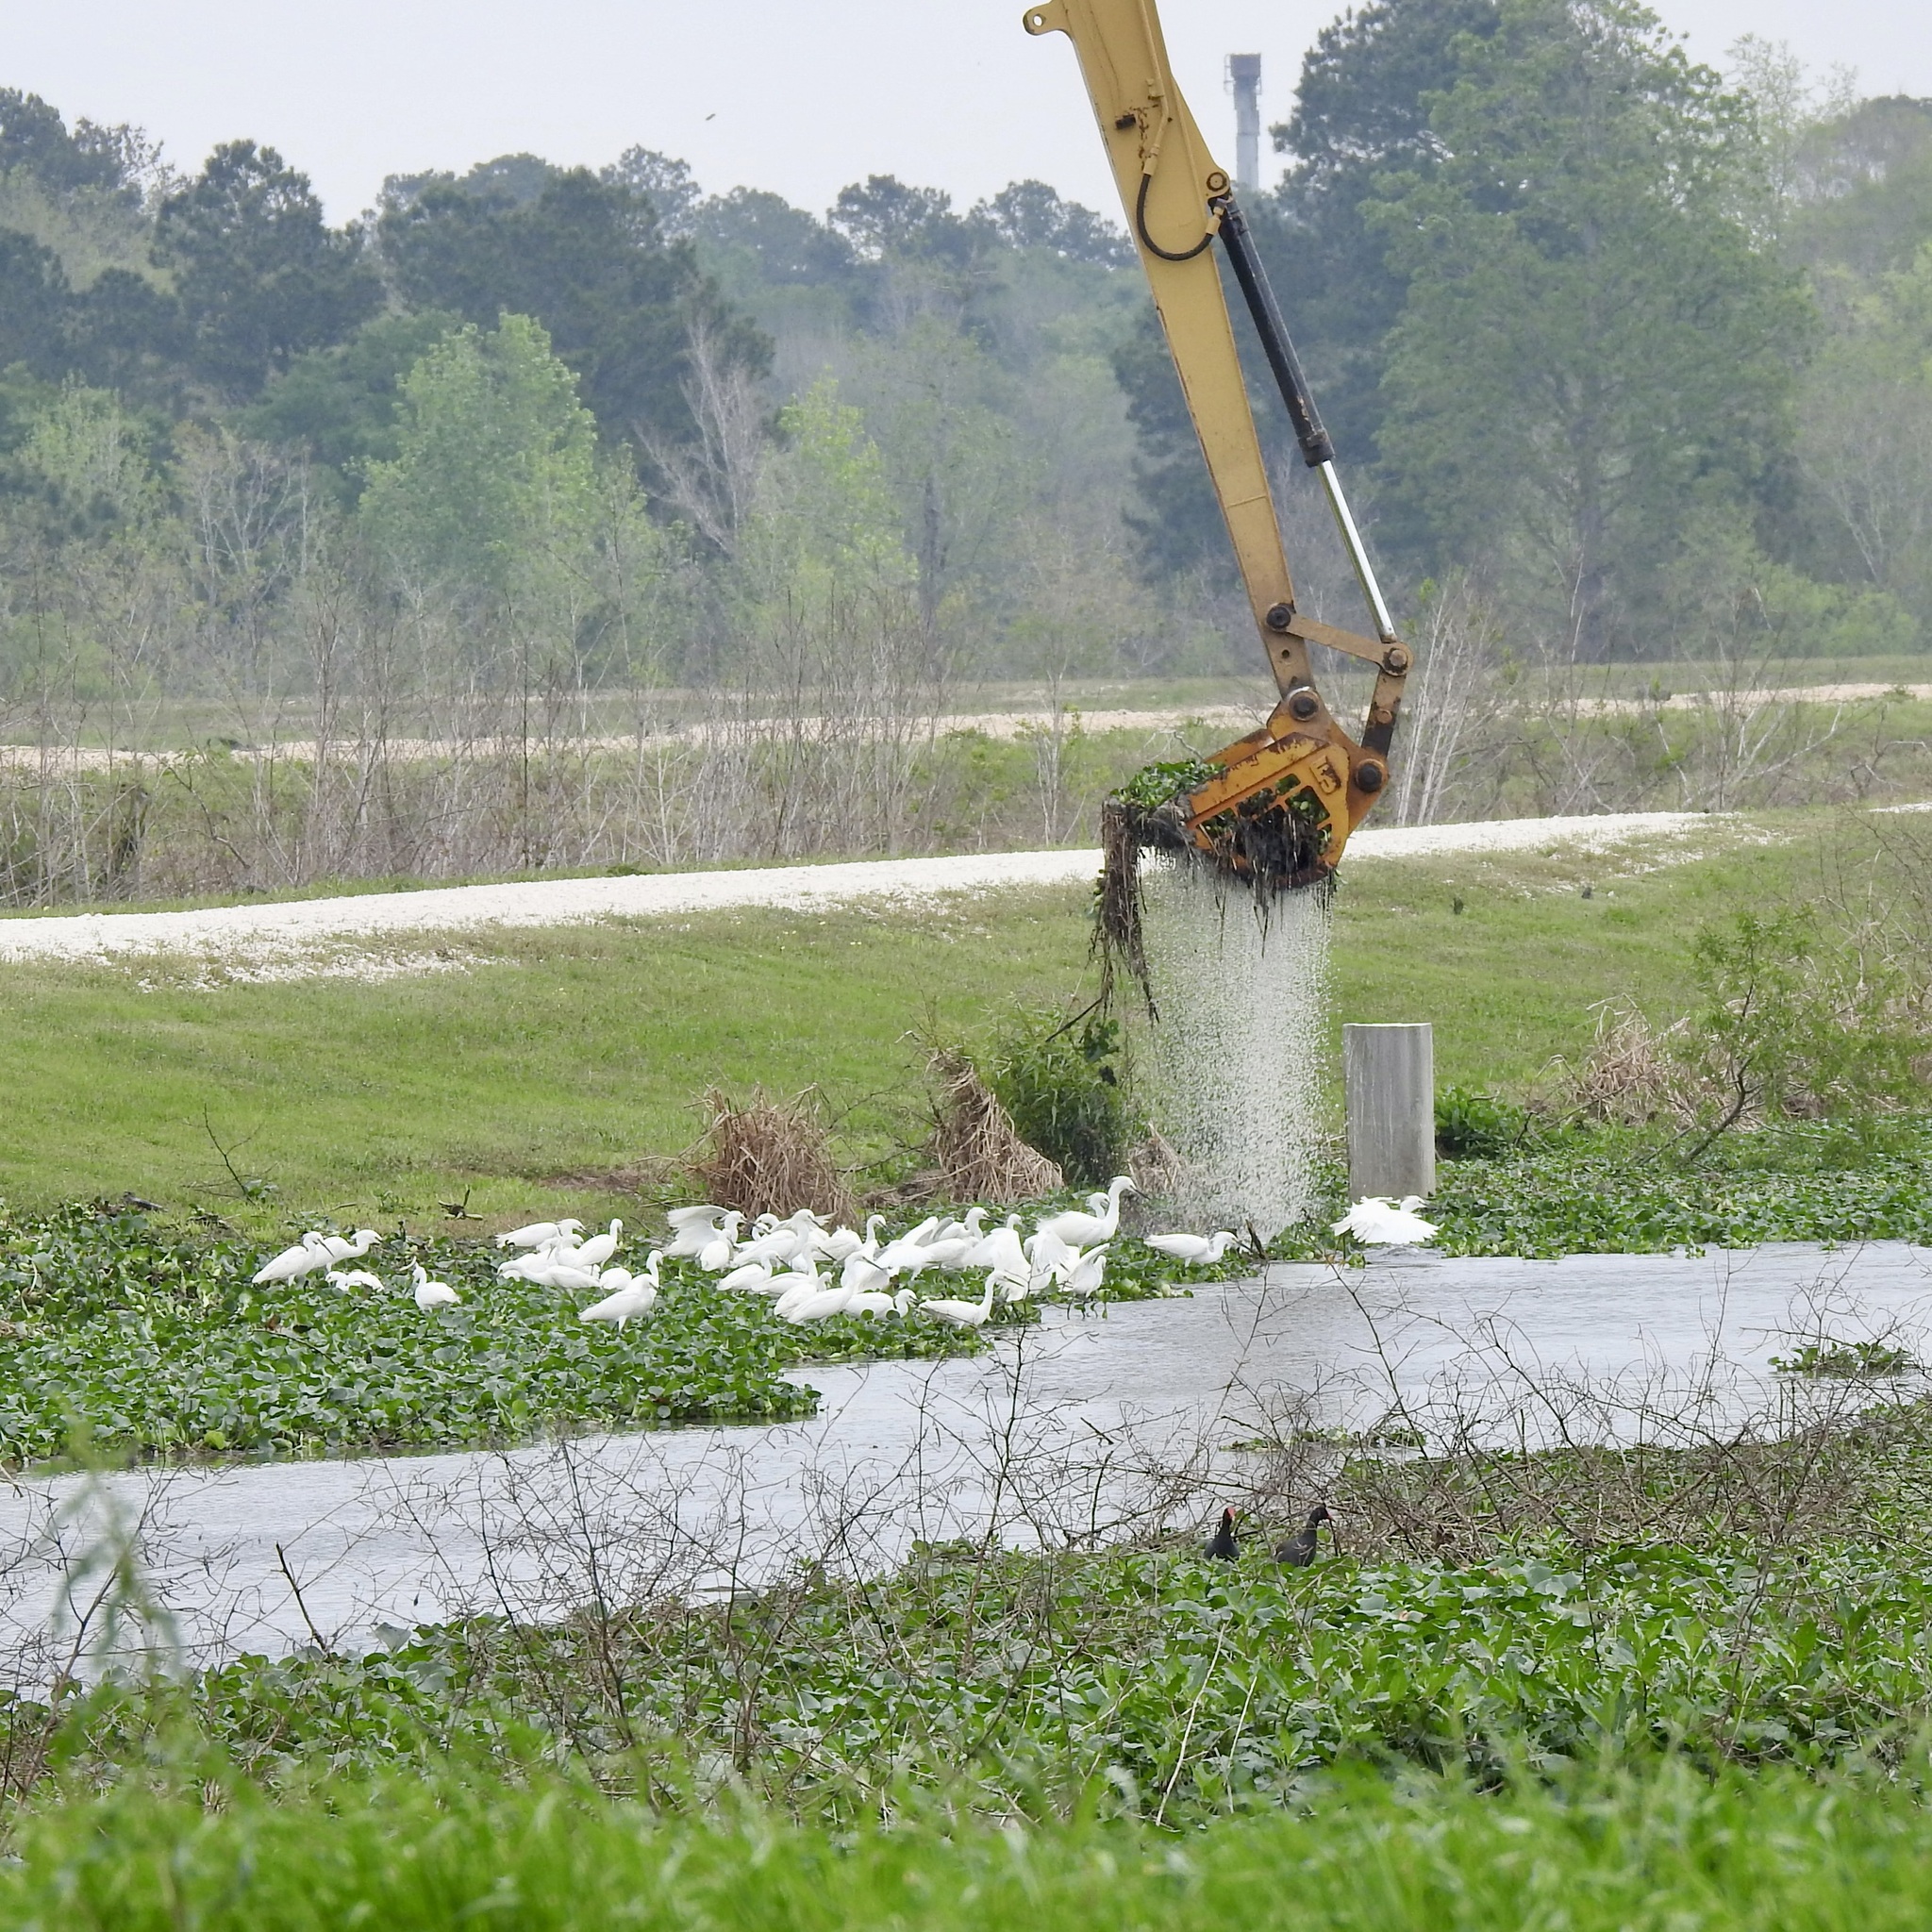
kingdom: Animalia
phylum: Chordata
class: Aves
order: Pelecaniformes
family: Ardeidae
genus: Egretta
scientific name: Egretta thula
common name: Snowy egret
